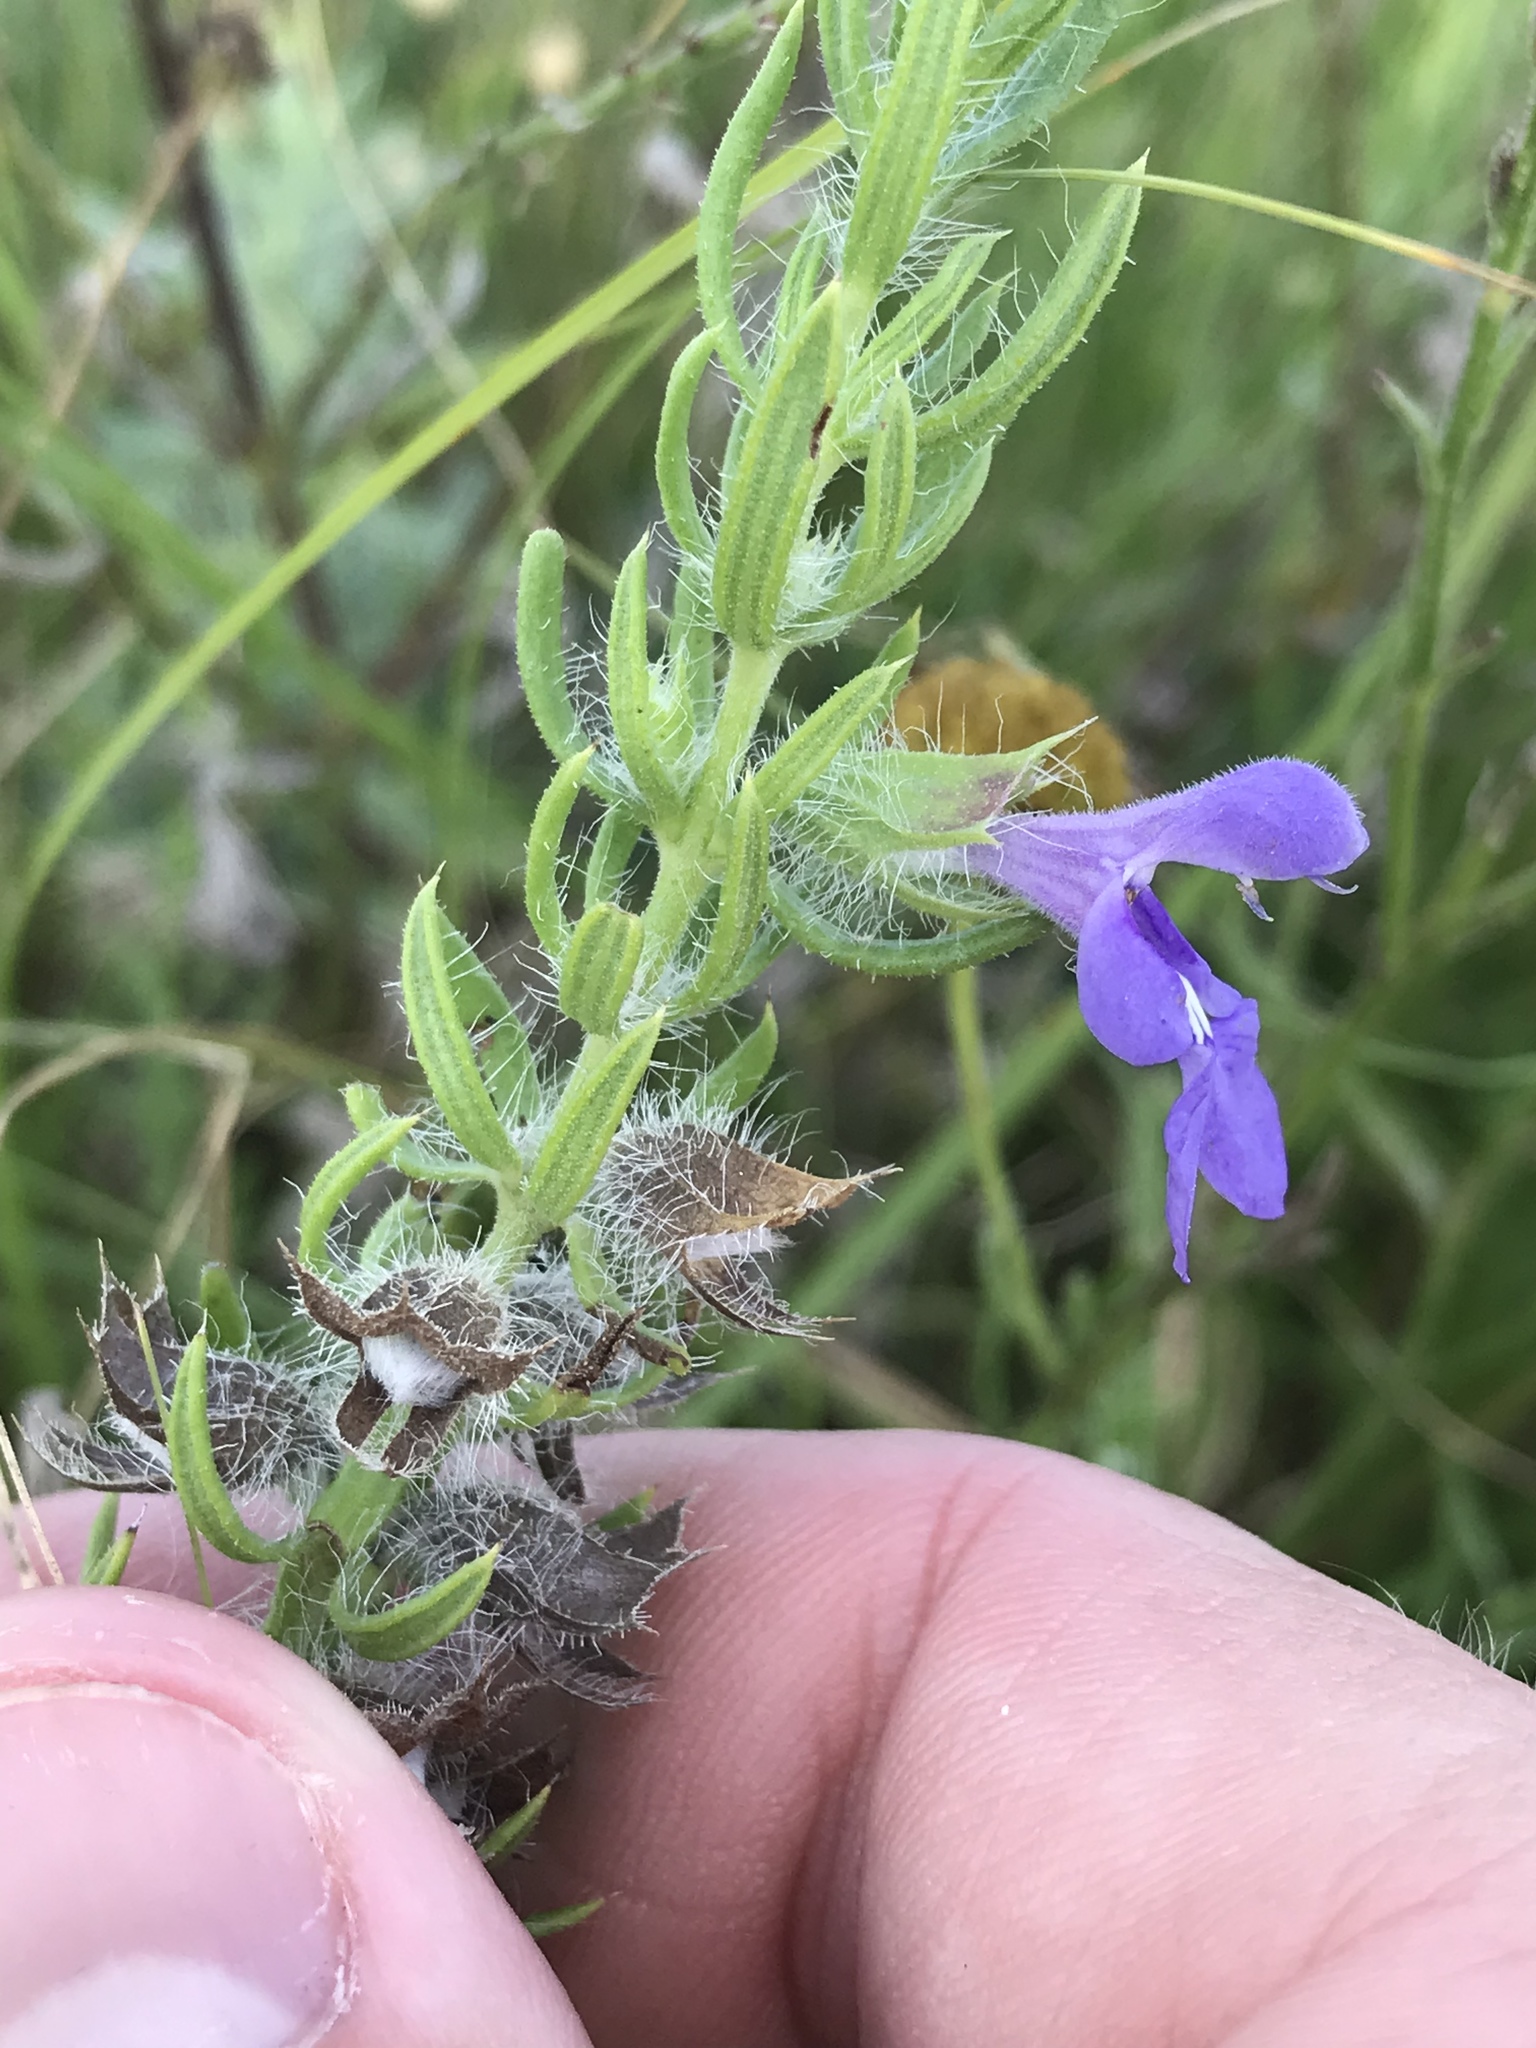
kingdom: Plantae
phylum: Tracheophyta
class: Magnoliopsida
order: Lamiales
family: Lamiaceae
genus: Salvia
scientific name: Salvia texana
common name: Texas sage
